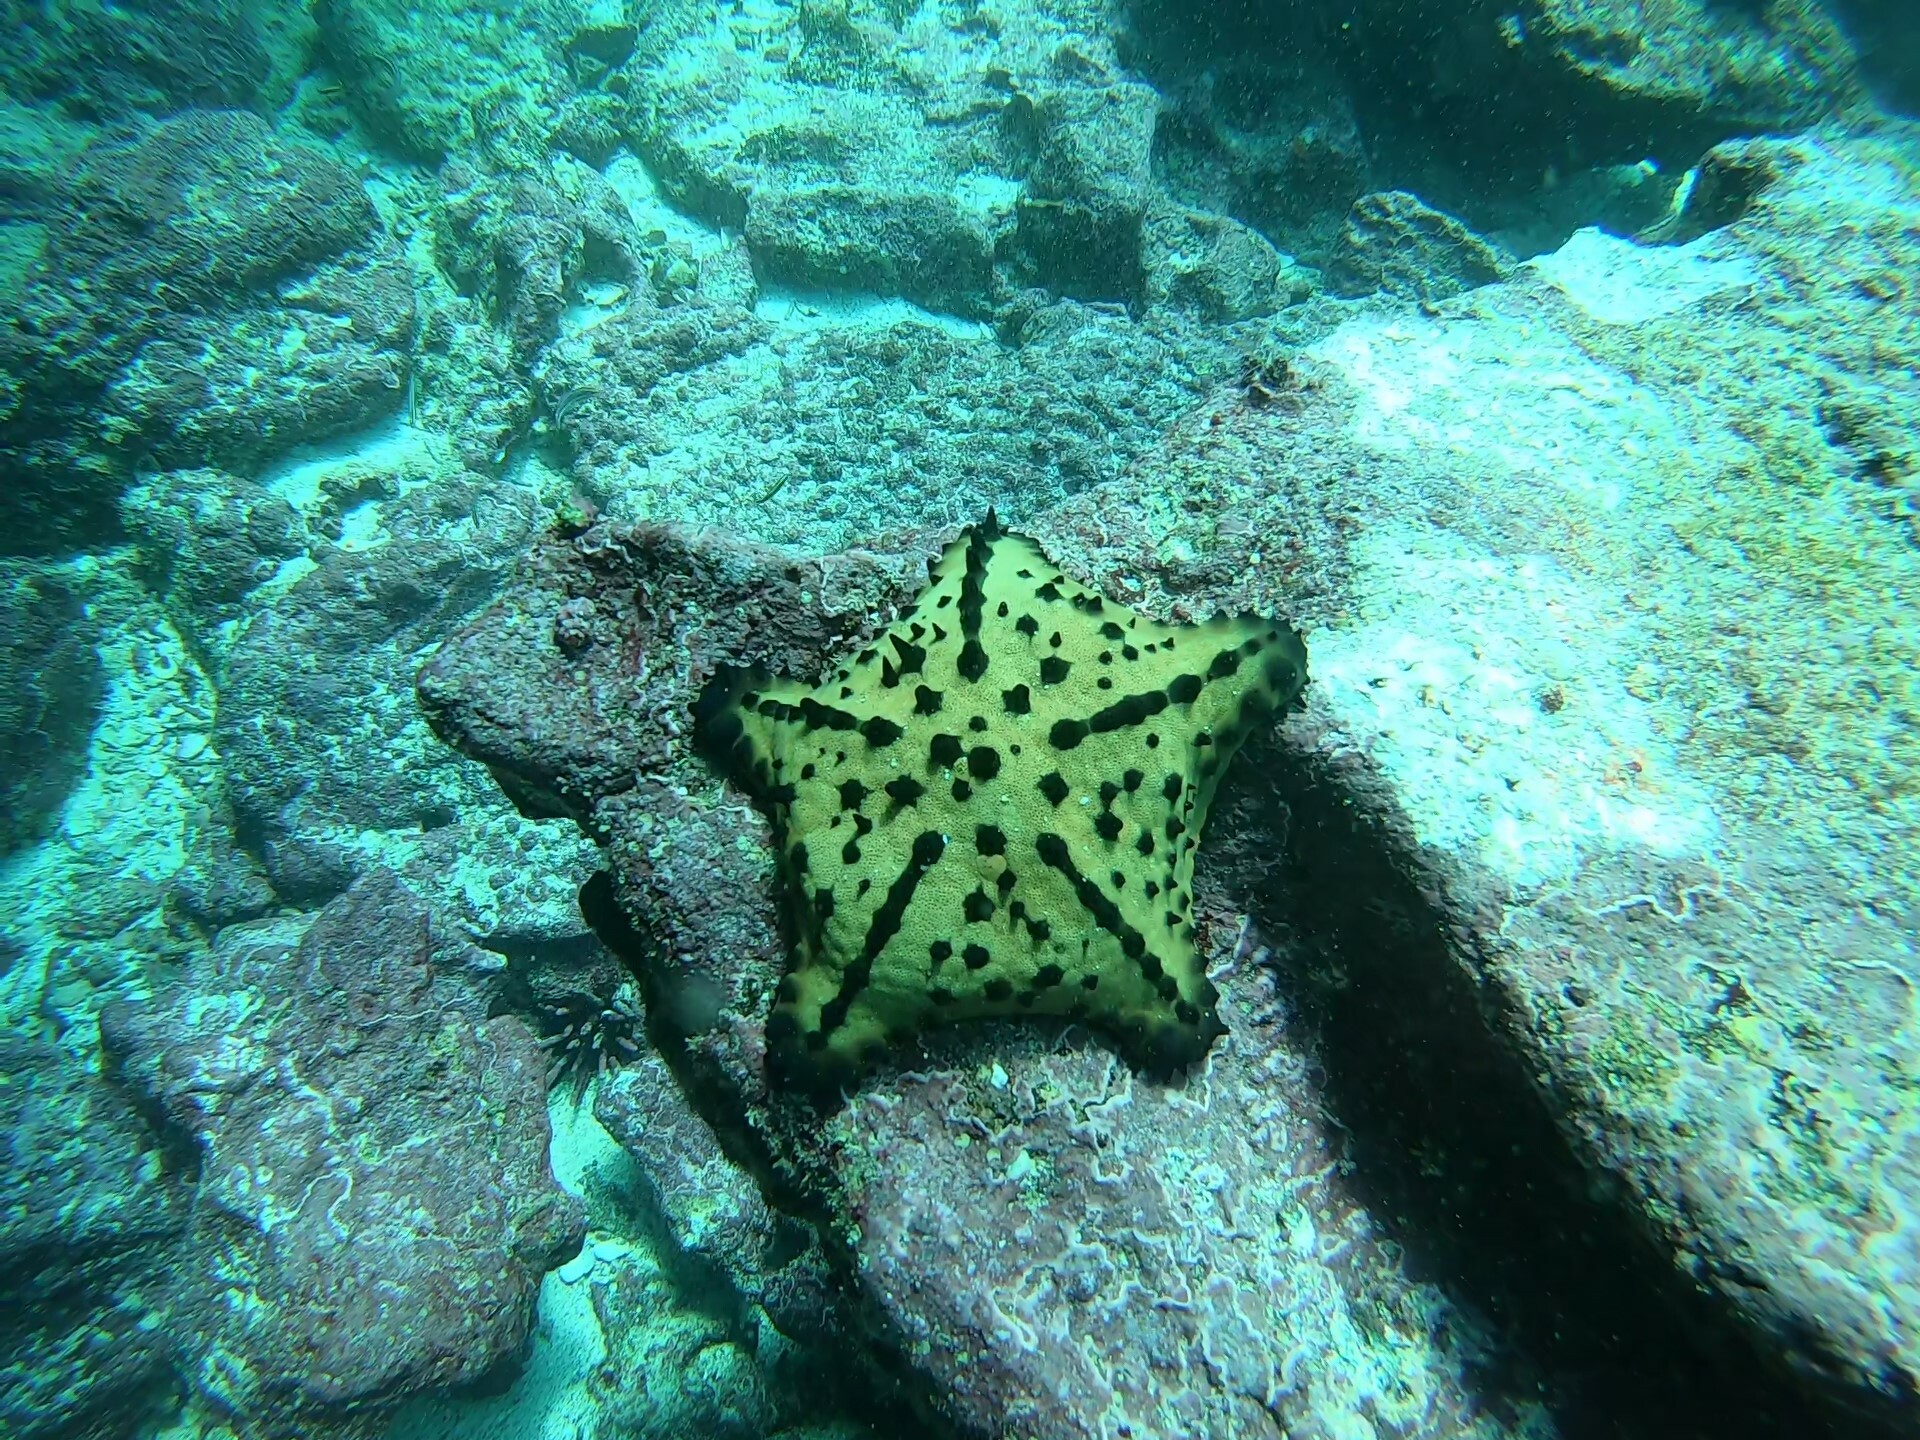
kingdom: Animalia
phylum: Echinodermata
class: Asteroidea
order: Valvatida
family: Oreasteridae
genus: Nidorellia
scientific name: Nidorellia armata
